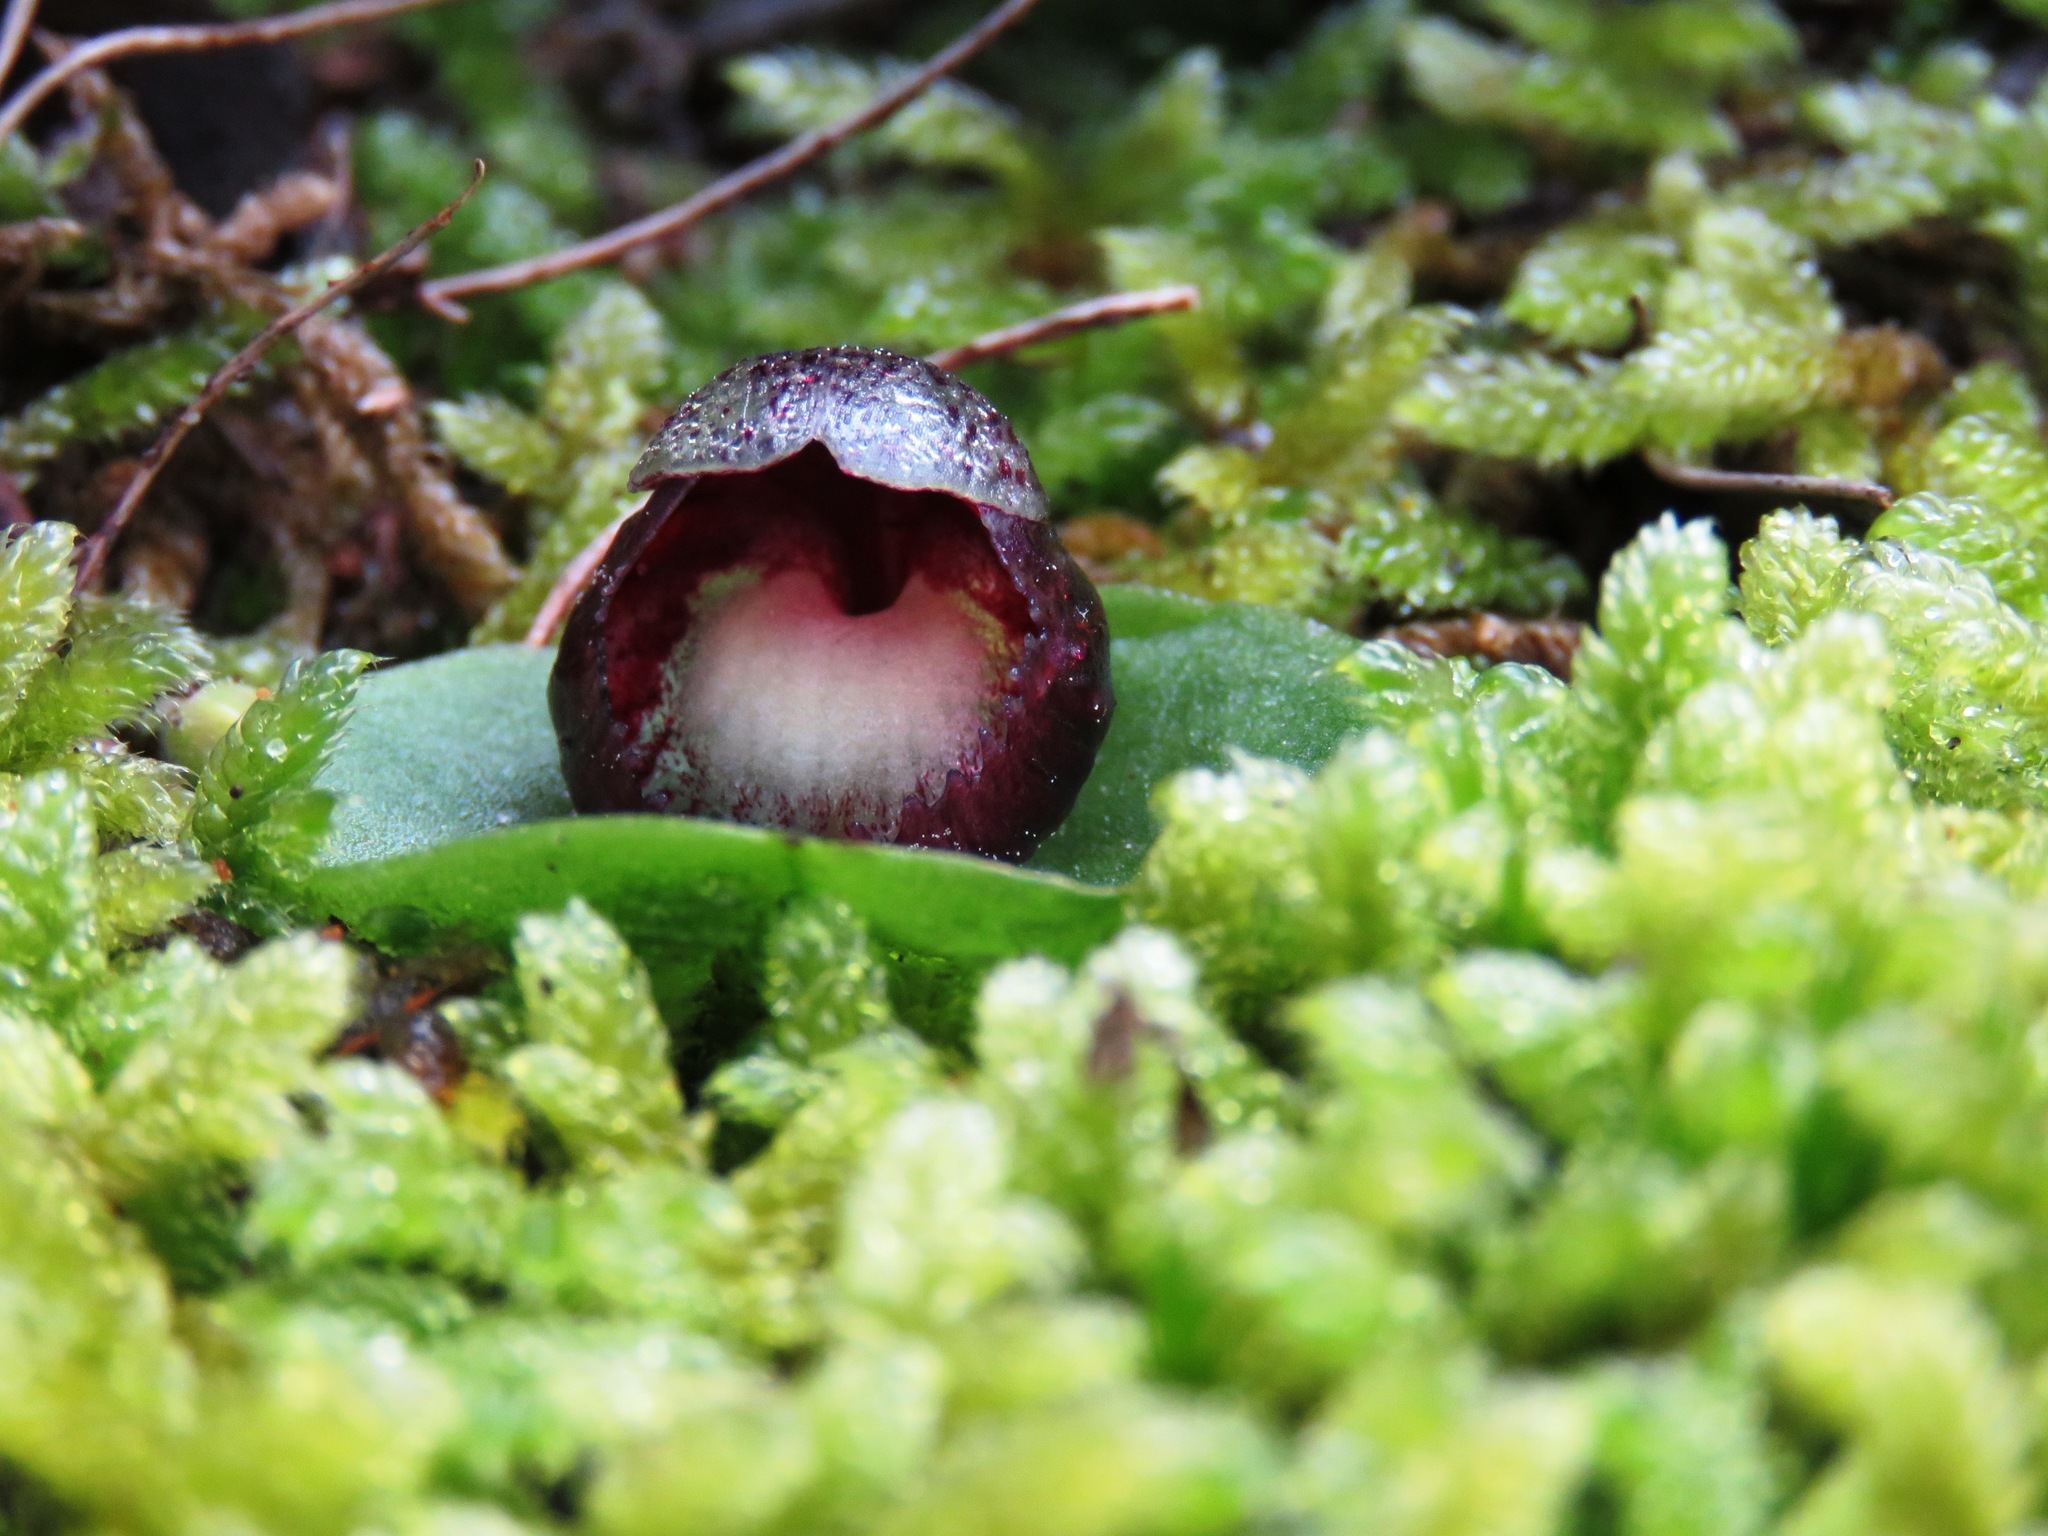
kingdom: Plantae
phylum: Tracheophyta
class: Liliopsida
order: Asparagales
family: Orchidaceae
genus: Corybas
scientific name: Corybas incurvus
